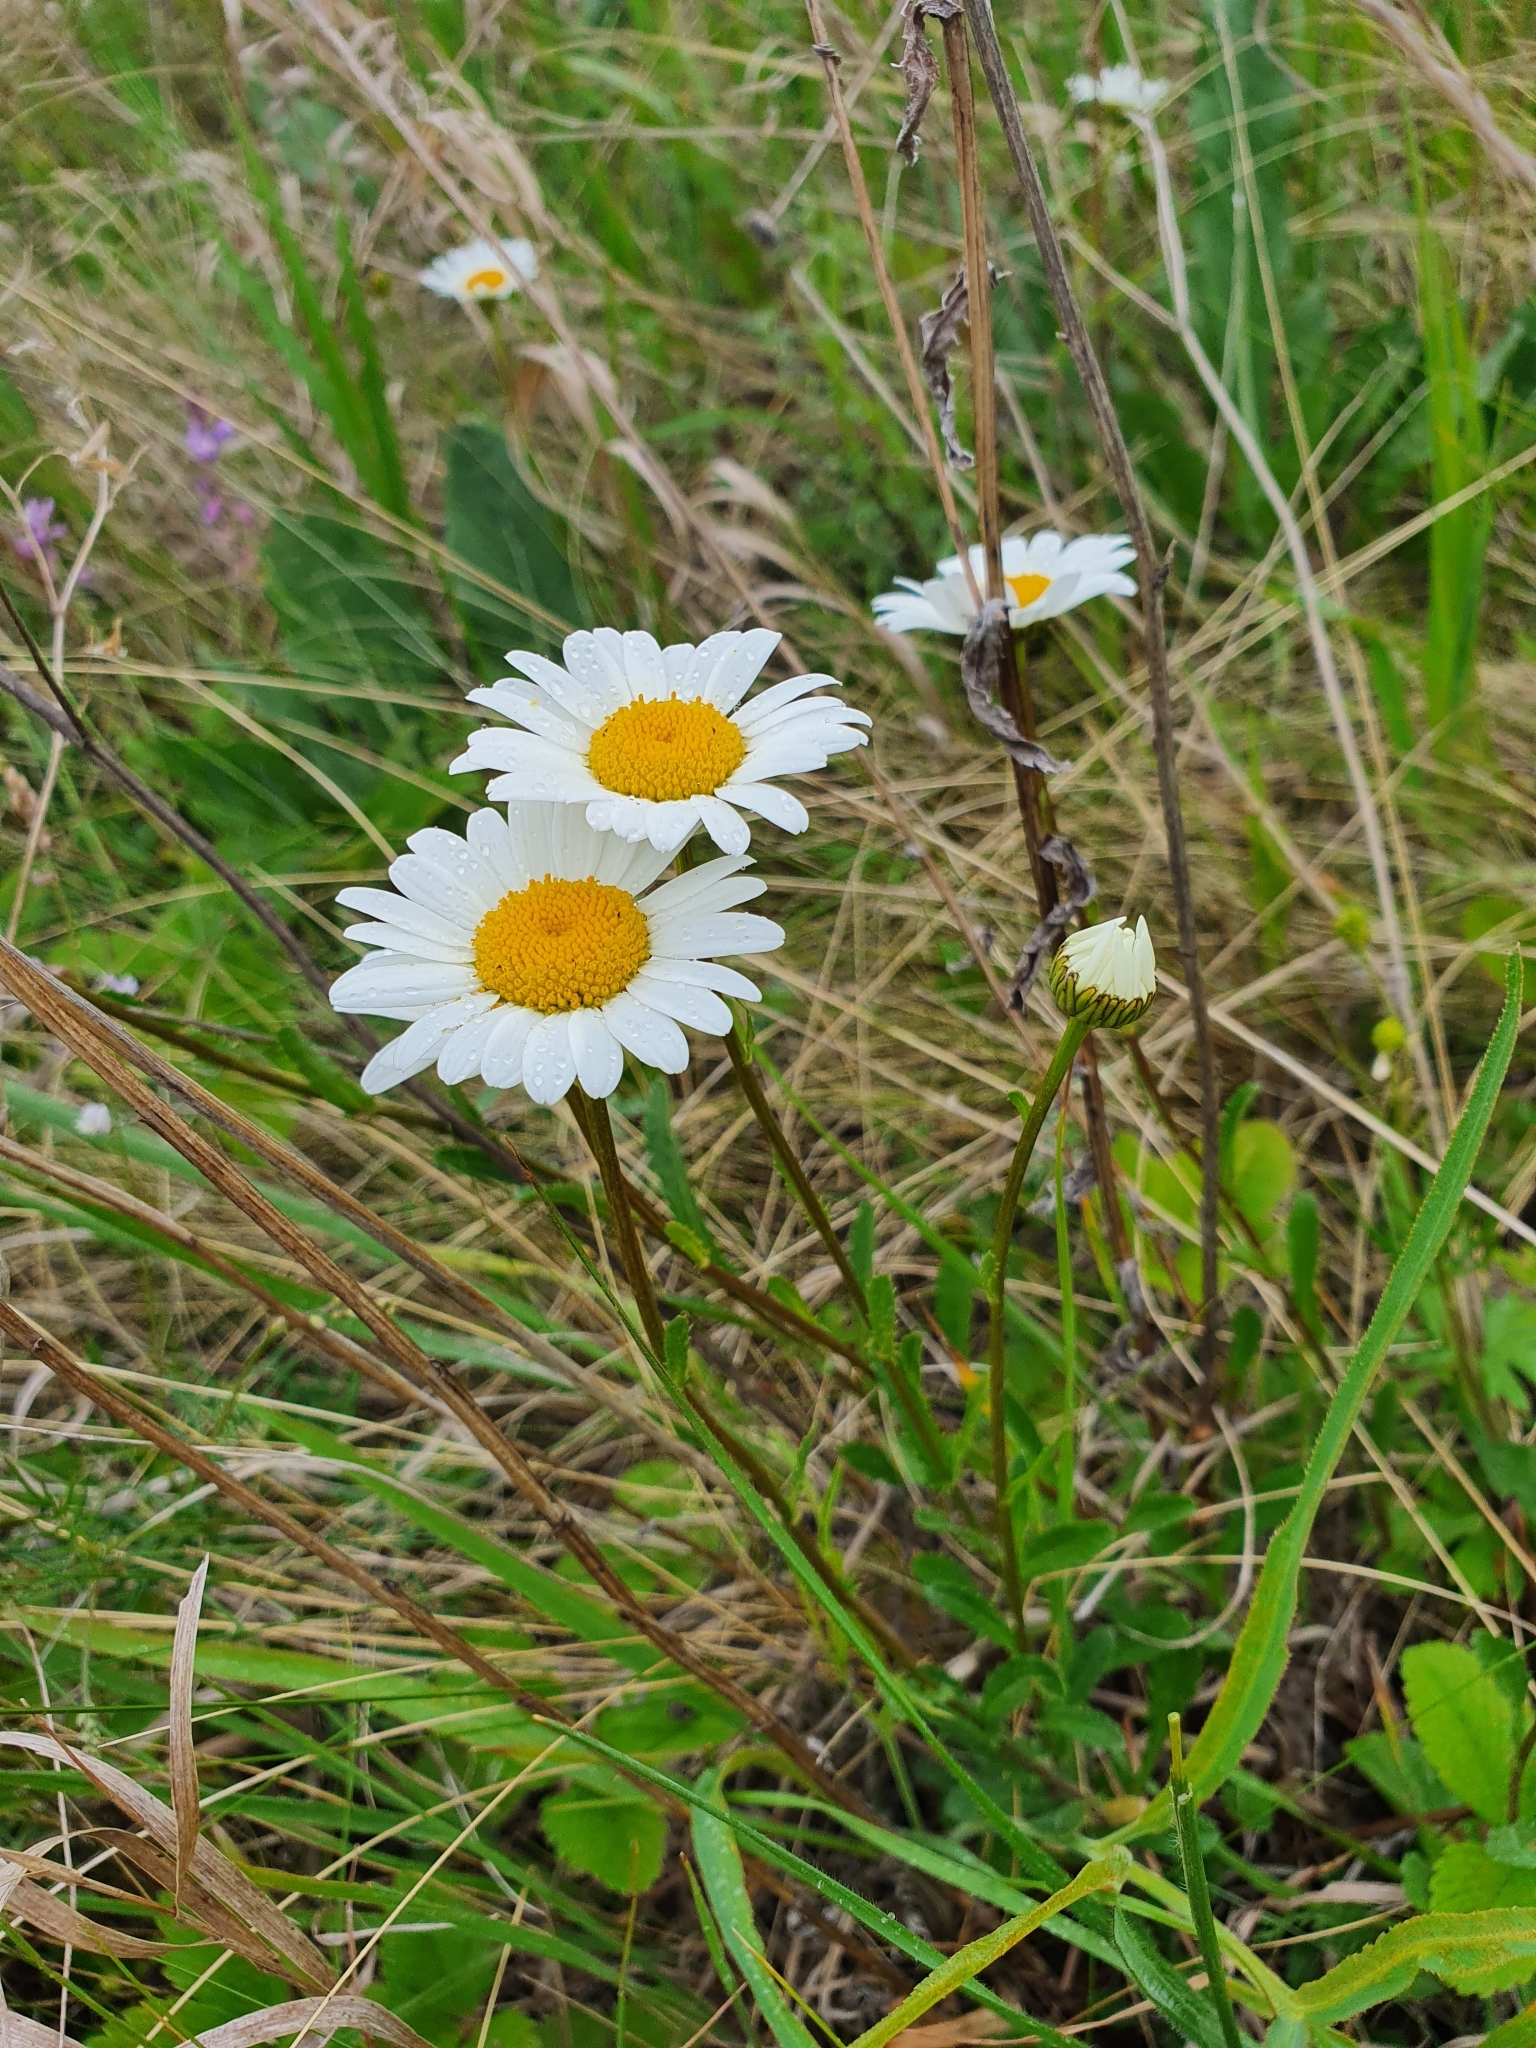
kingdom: Plantae
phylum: Tracheophyta
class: Magnoliopsida
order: Asterales
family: Asteraceae
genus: Leucanthemum
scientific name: Leucanthemum vulgare
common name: Oxeye daisy
